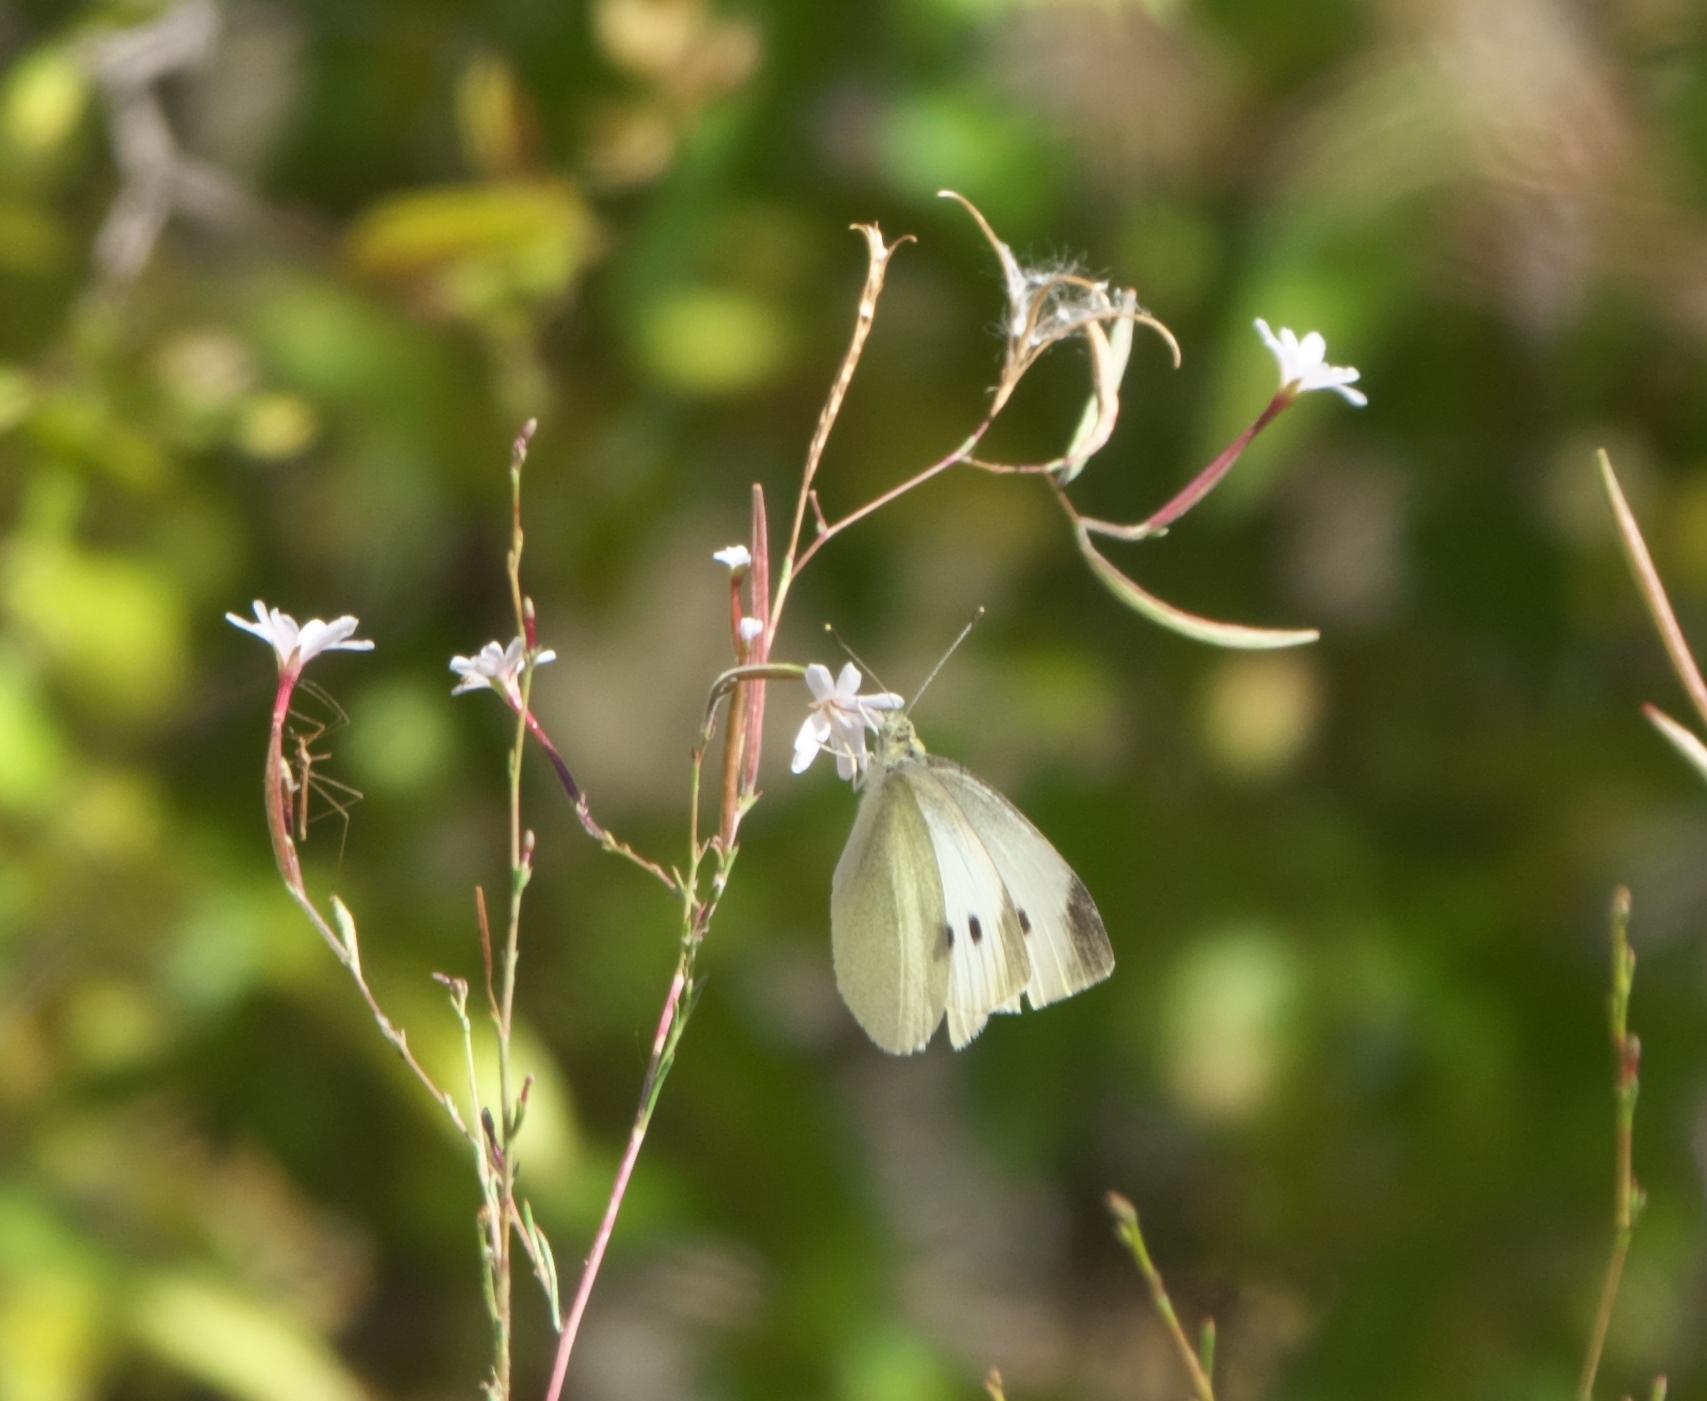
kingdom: Animalia
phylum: Arthropoda
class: Insecta
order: Lepidoptera
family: Pieridae
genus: Pieris
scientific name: Pieris rapae
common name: Small white
